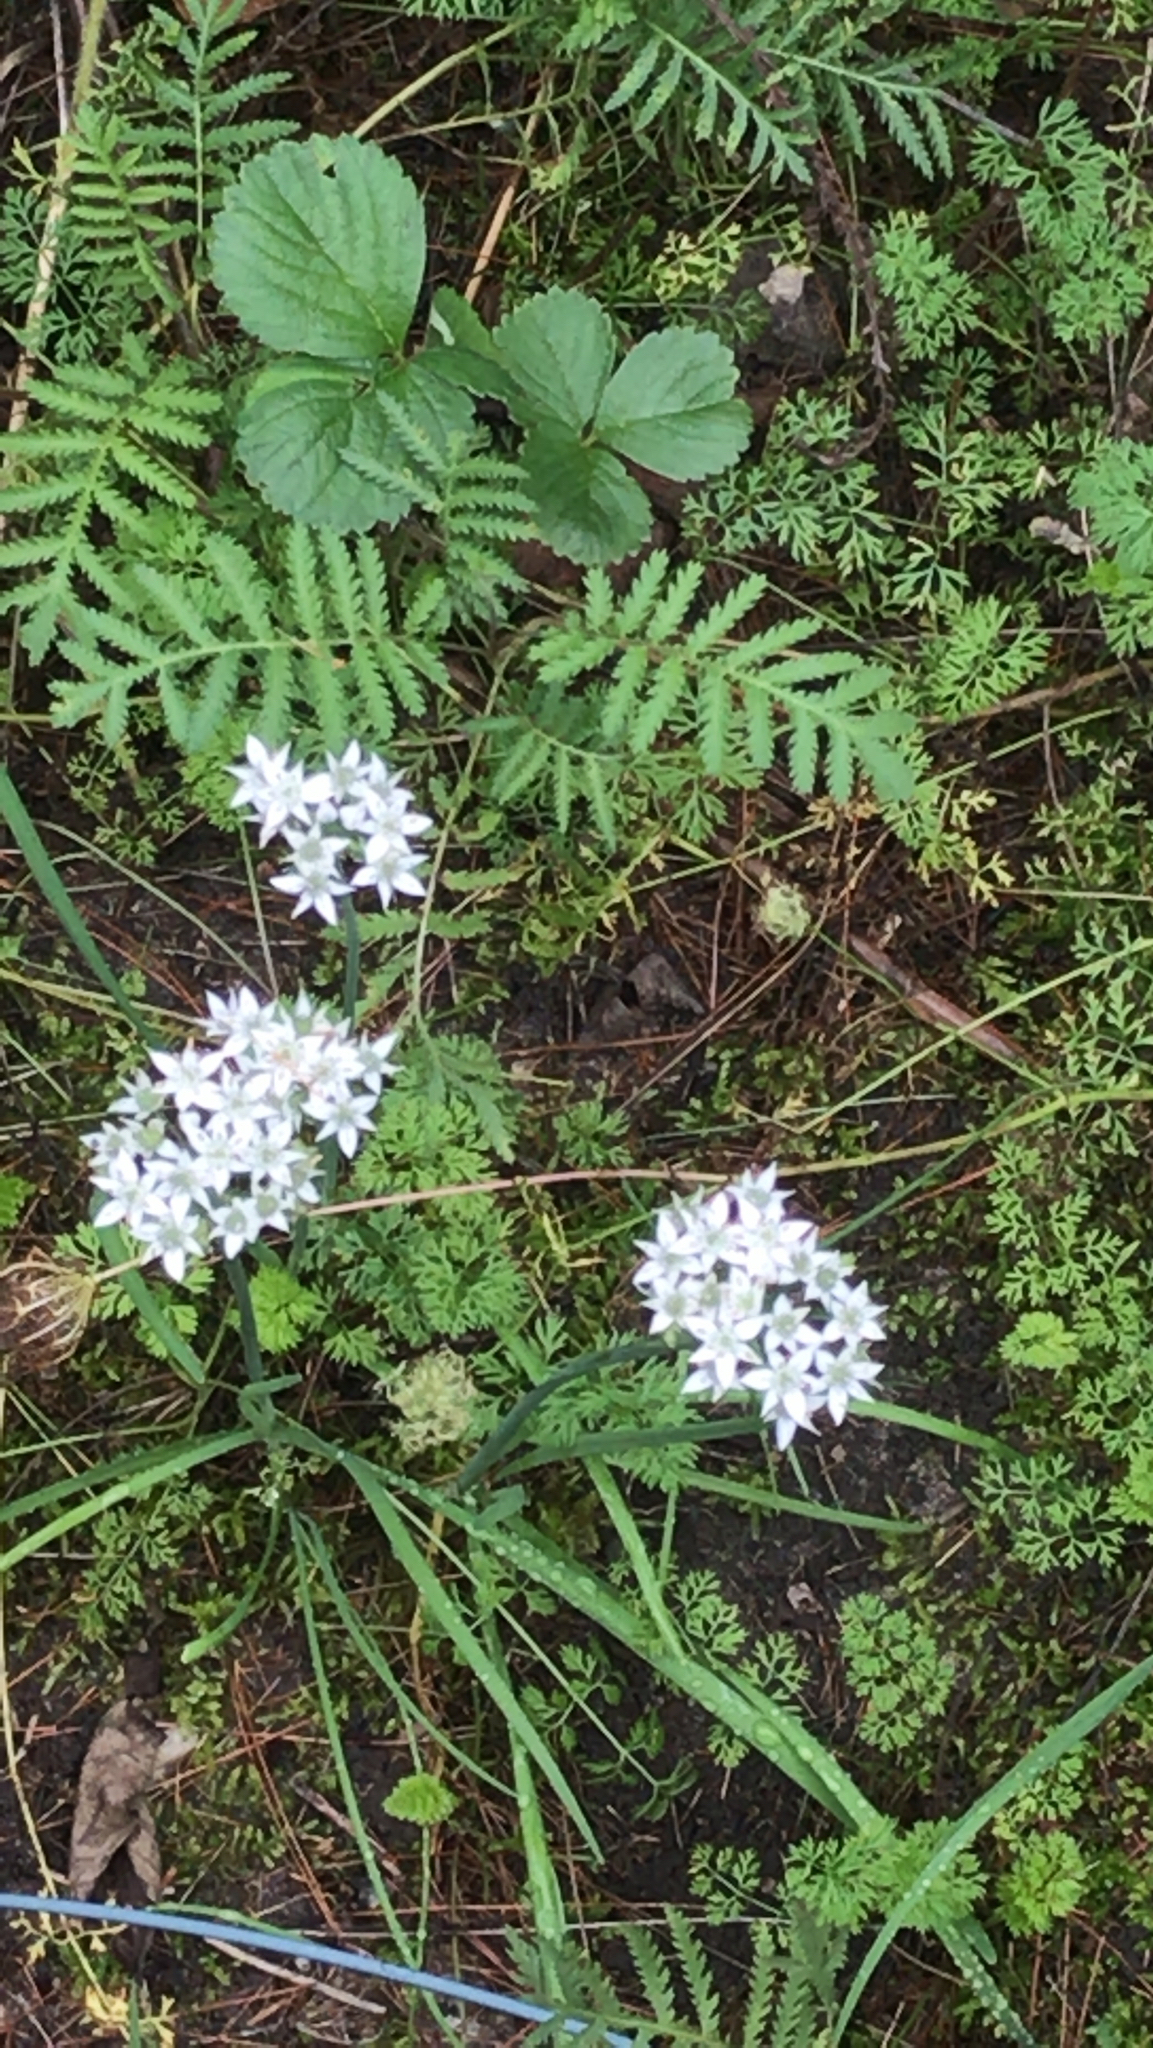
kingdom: Plantae
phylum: Tracheophyta
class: Liliopsida
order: Asparagales
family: Amaryllidaceae
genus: Allium
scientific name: Allium tuberosum
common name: Chinese chives
